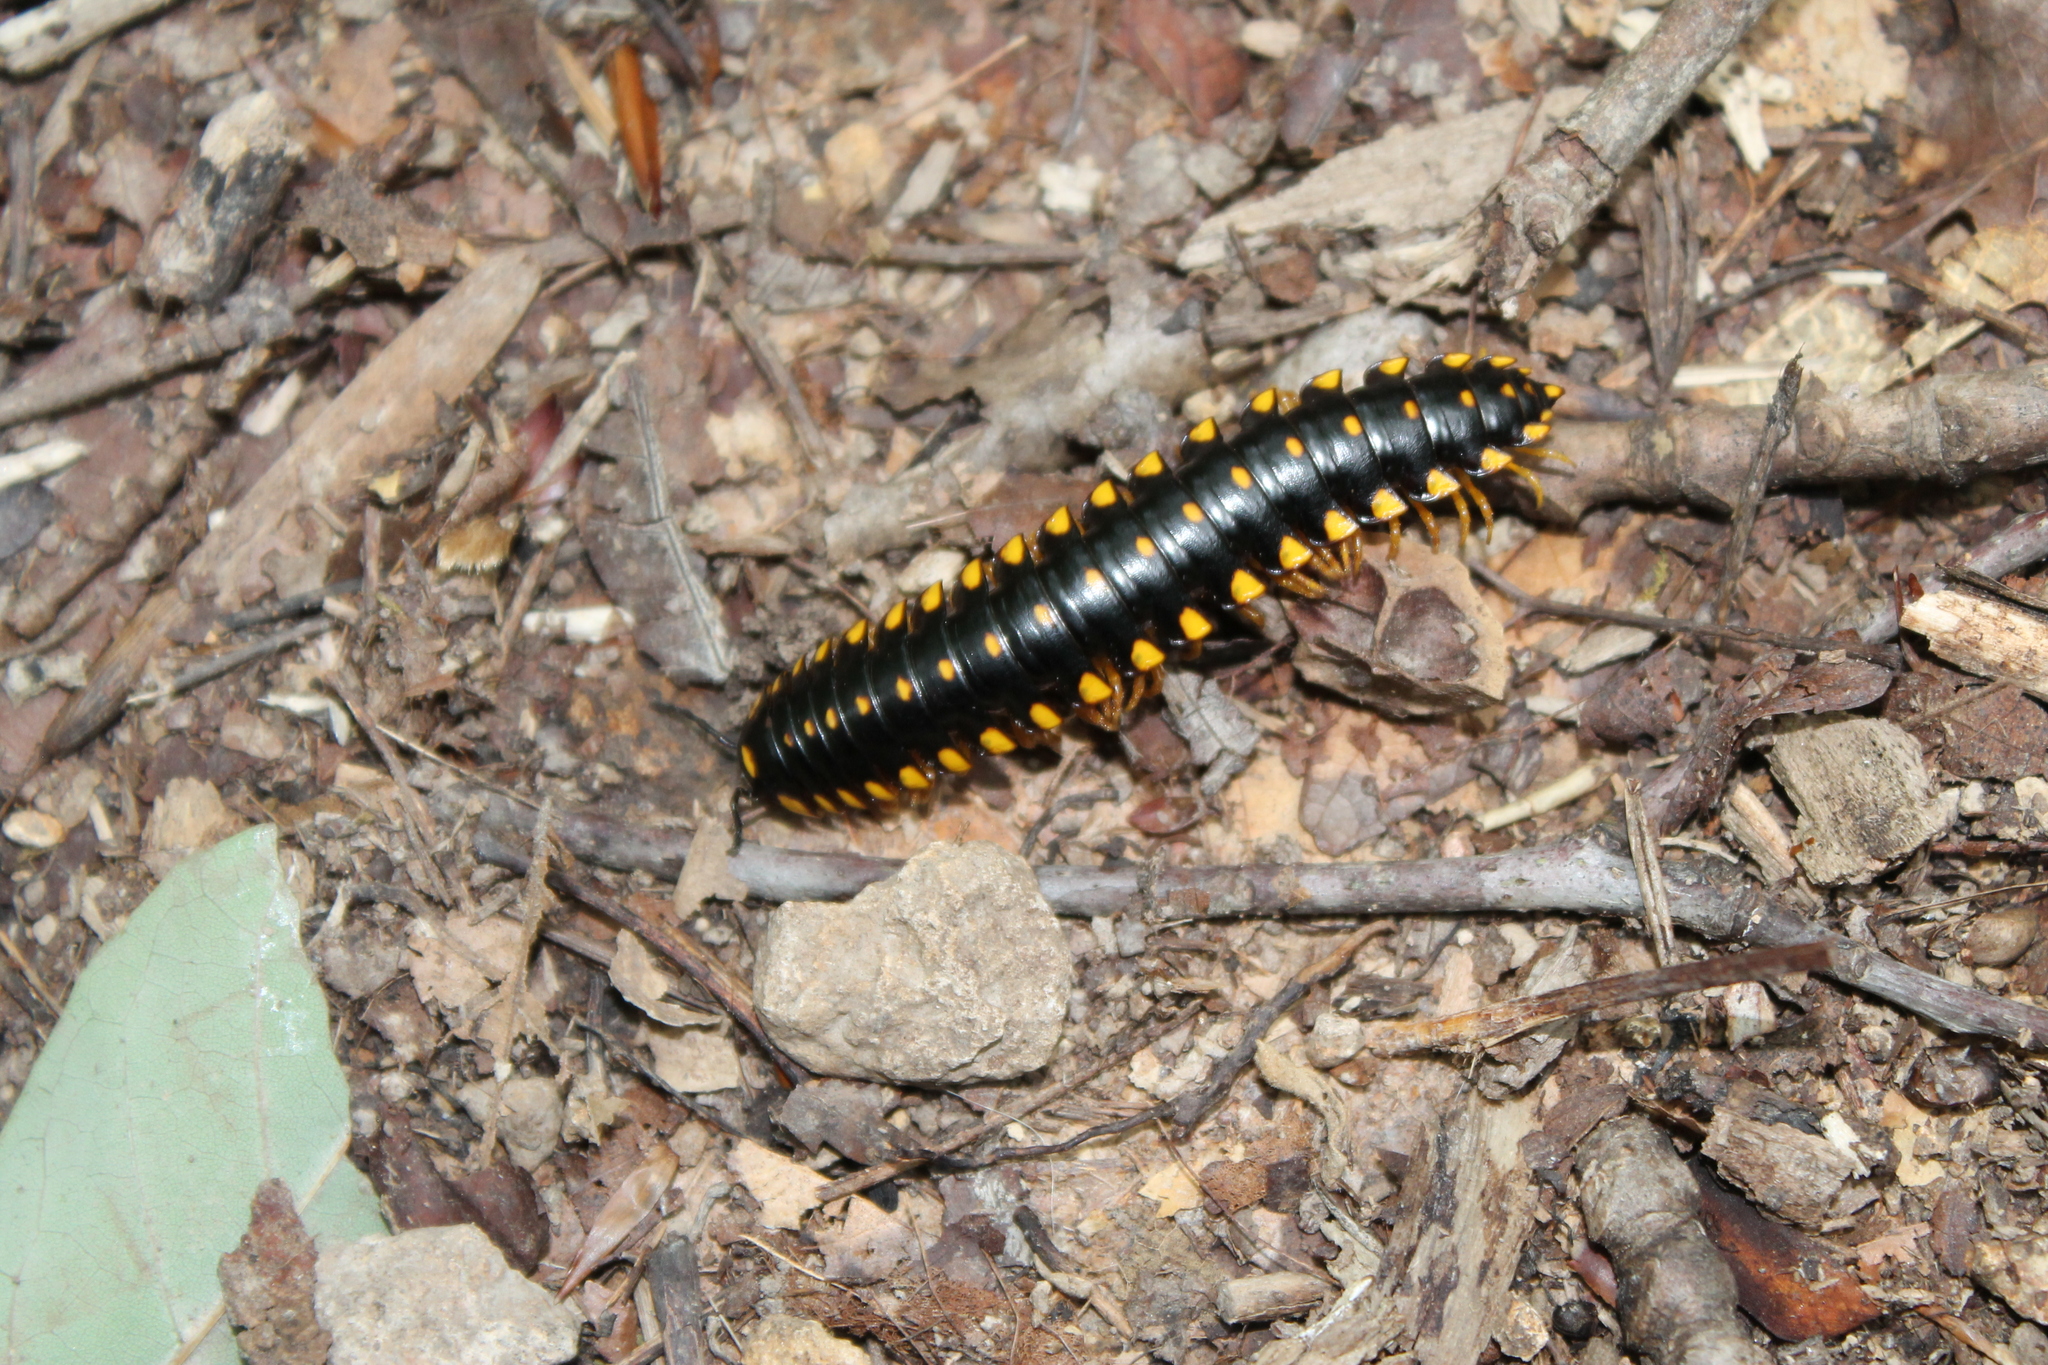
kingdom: Animalia
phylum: Arthropoda
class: Diplopoda
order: Polydesmida
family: Xystodesmidae
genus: Apheloria
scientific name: Apheloria montana
